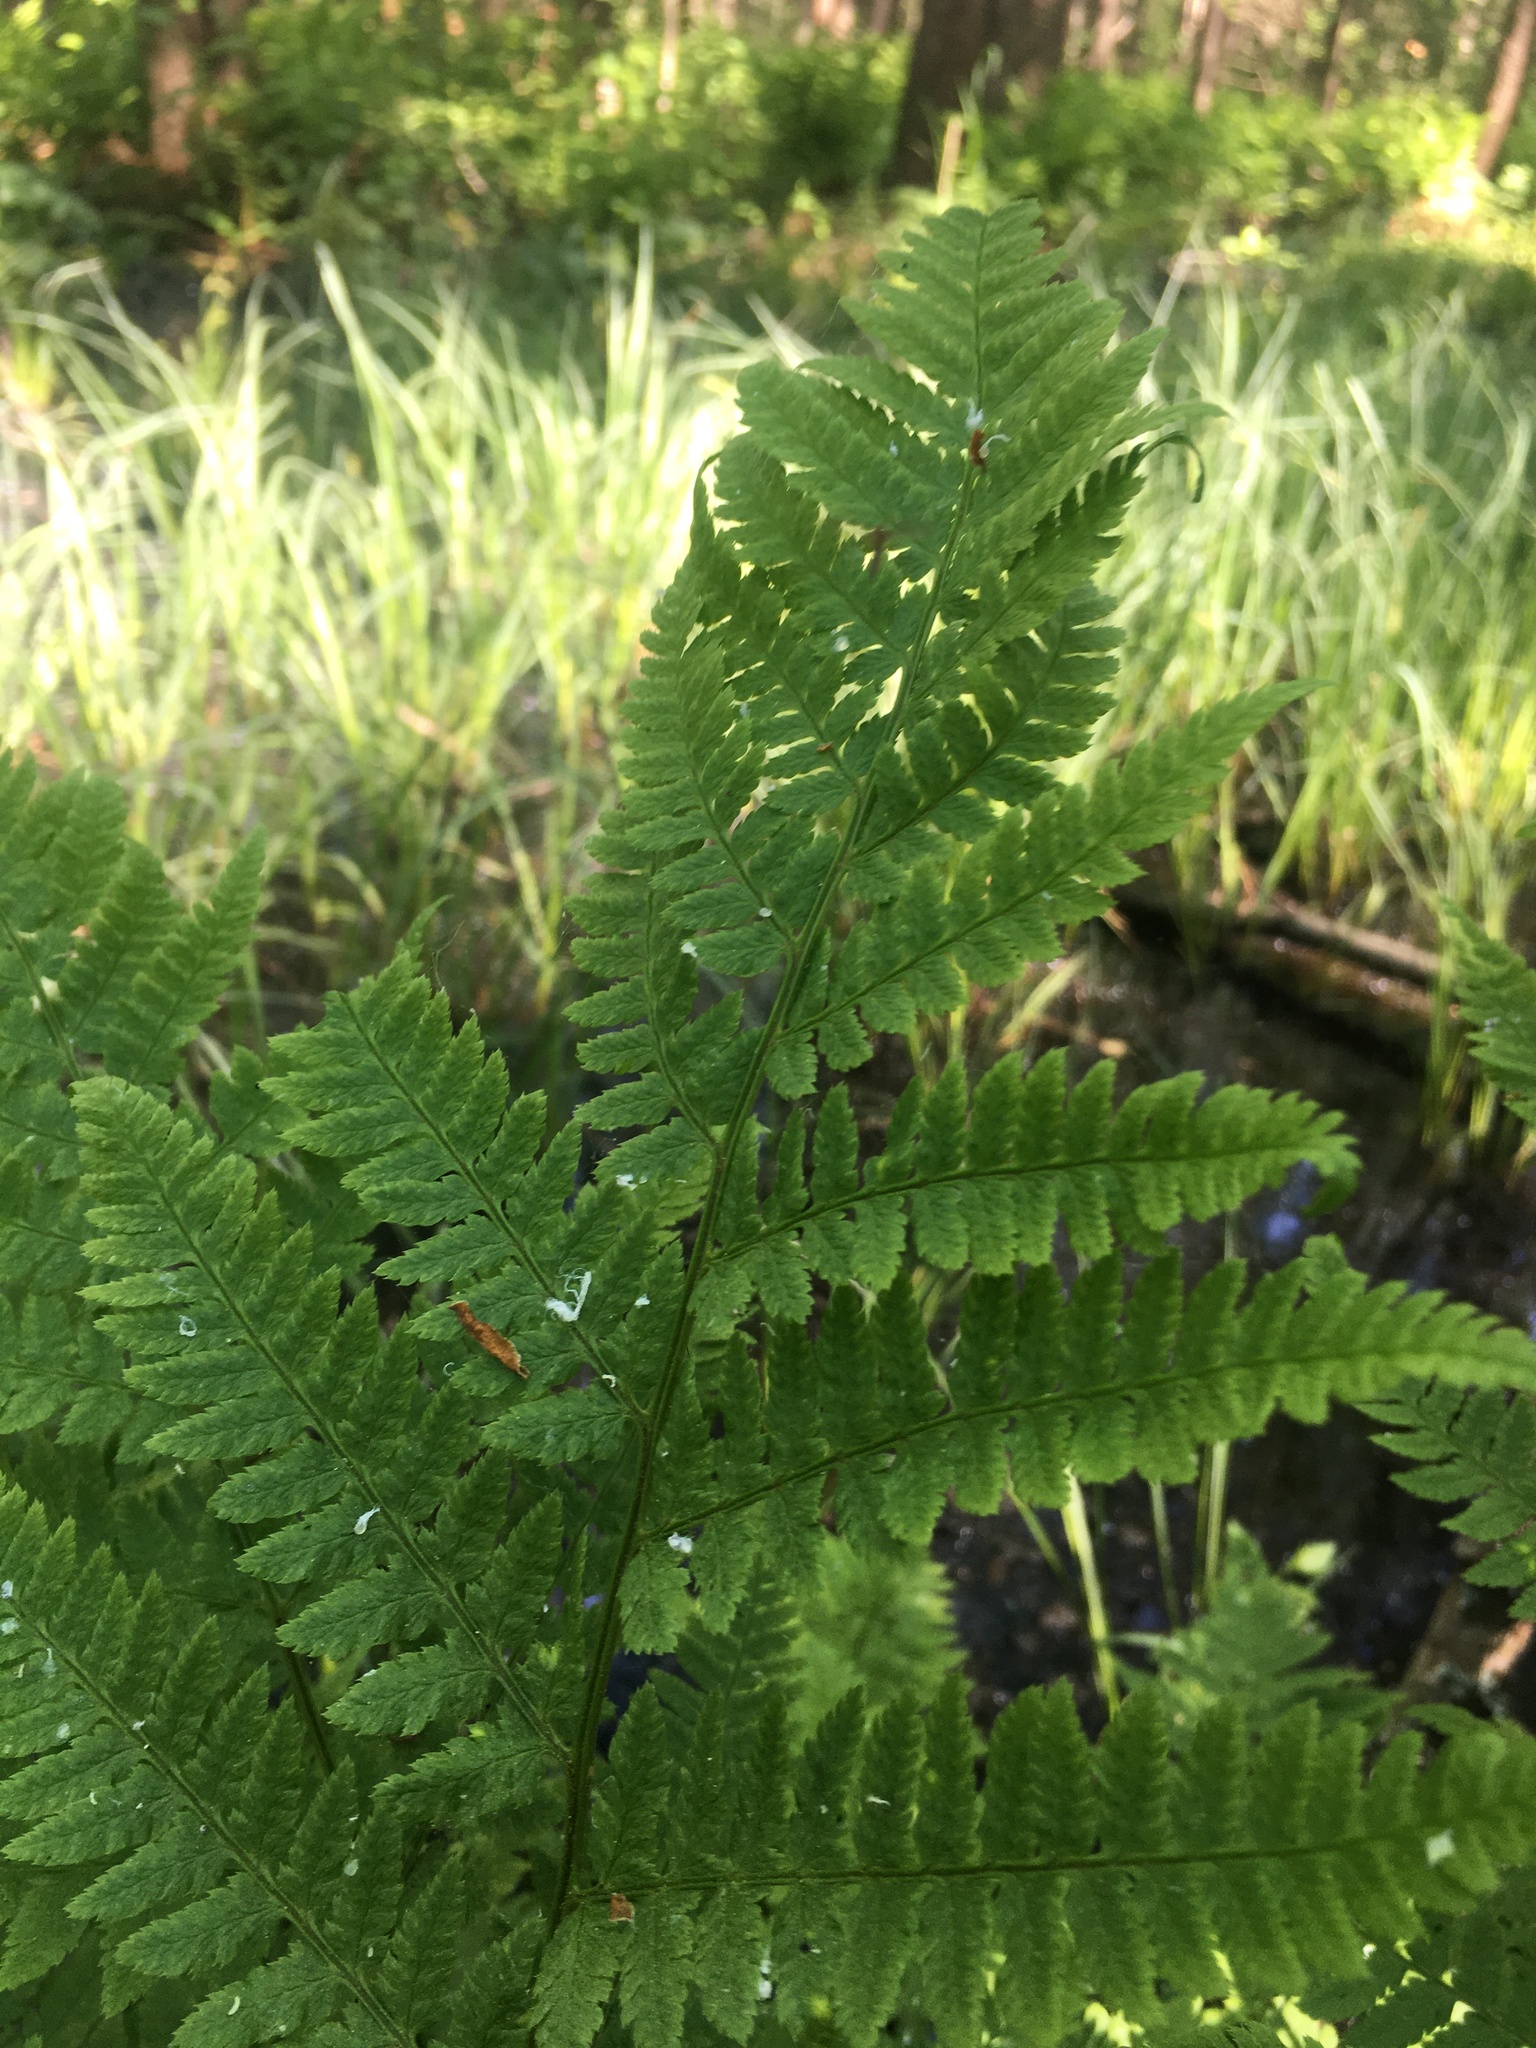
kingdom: Plantae
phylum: Tracheophyta
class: Polypodiopsida
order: Polypodiales
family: Dryopteridaceae
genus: Dryopteris
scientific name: Dryopteris carthusiana
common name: Narrow buckler-fern
